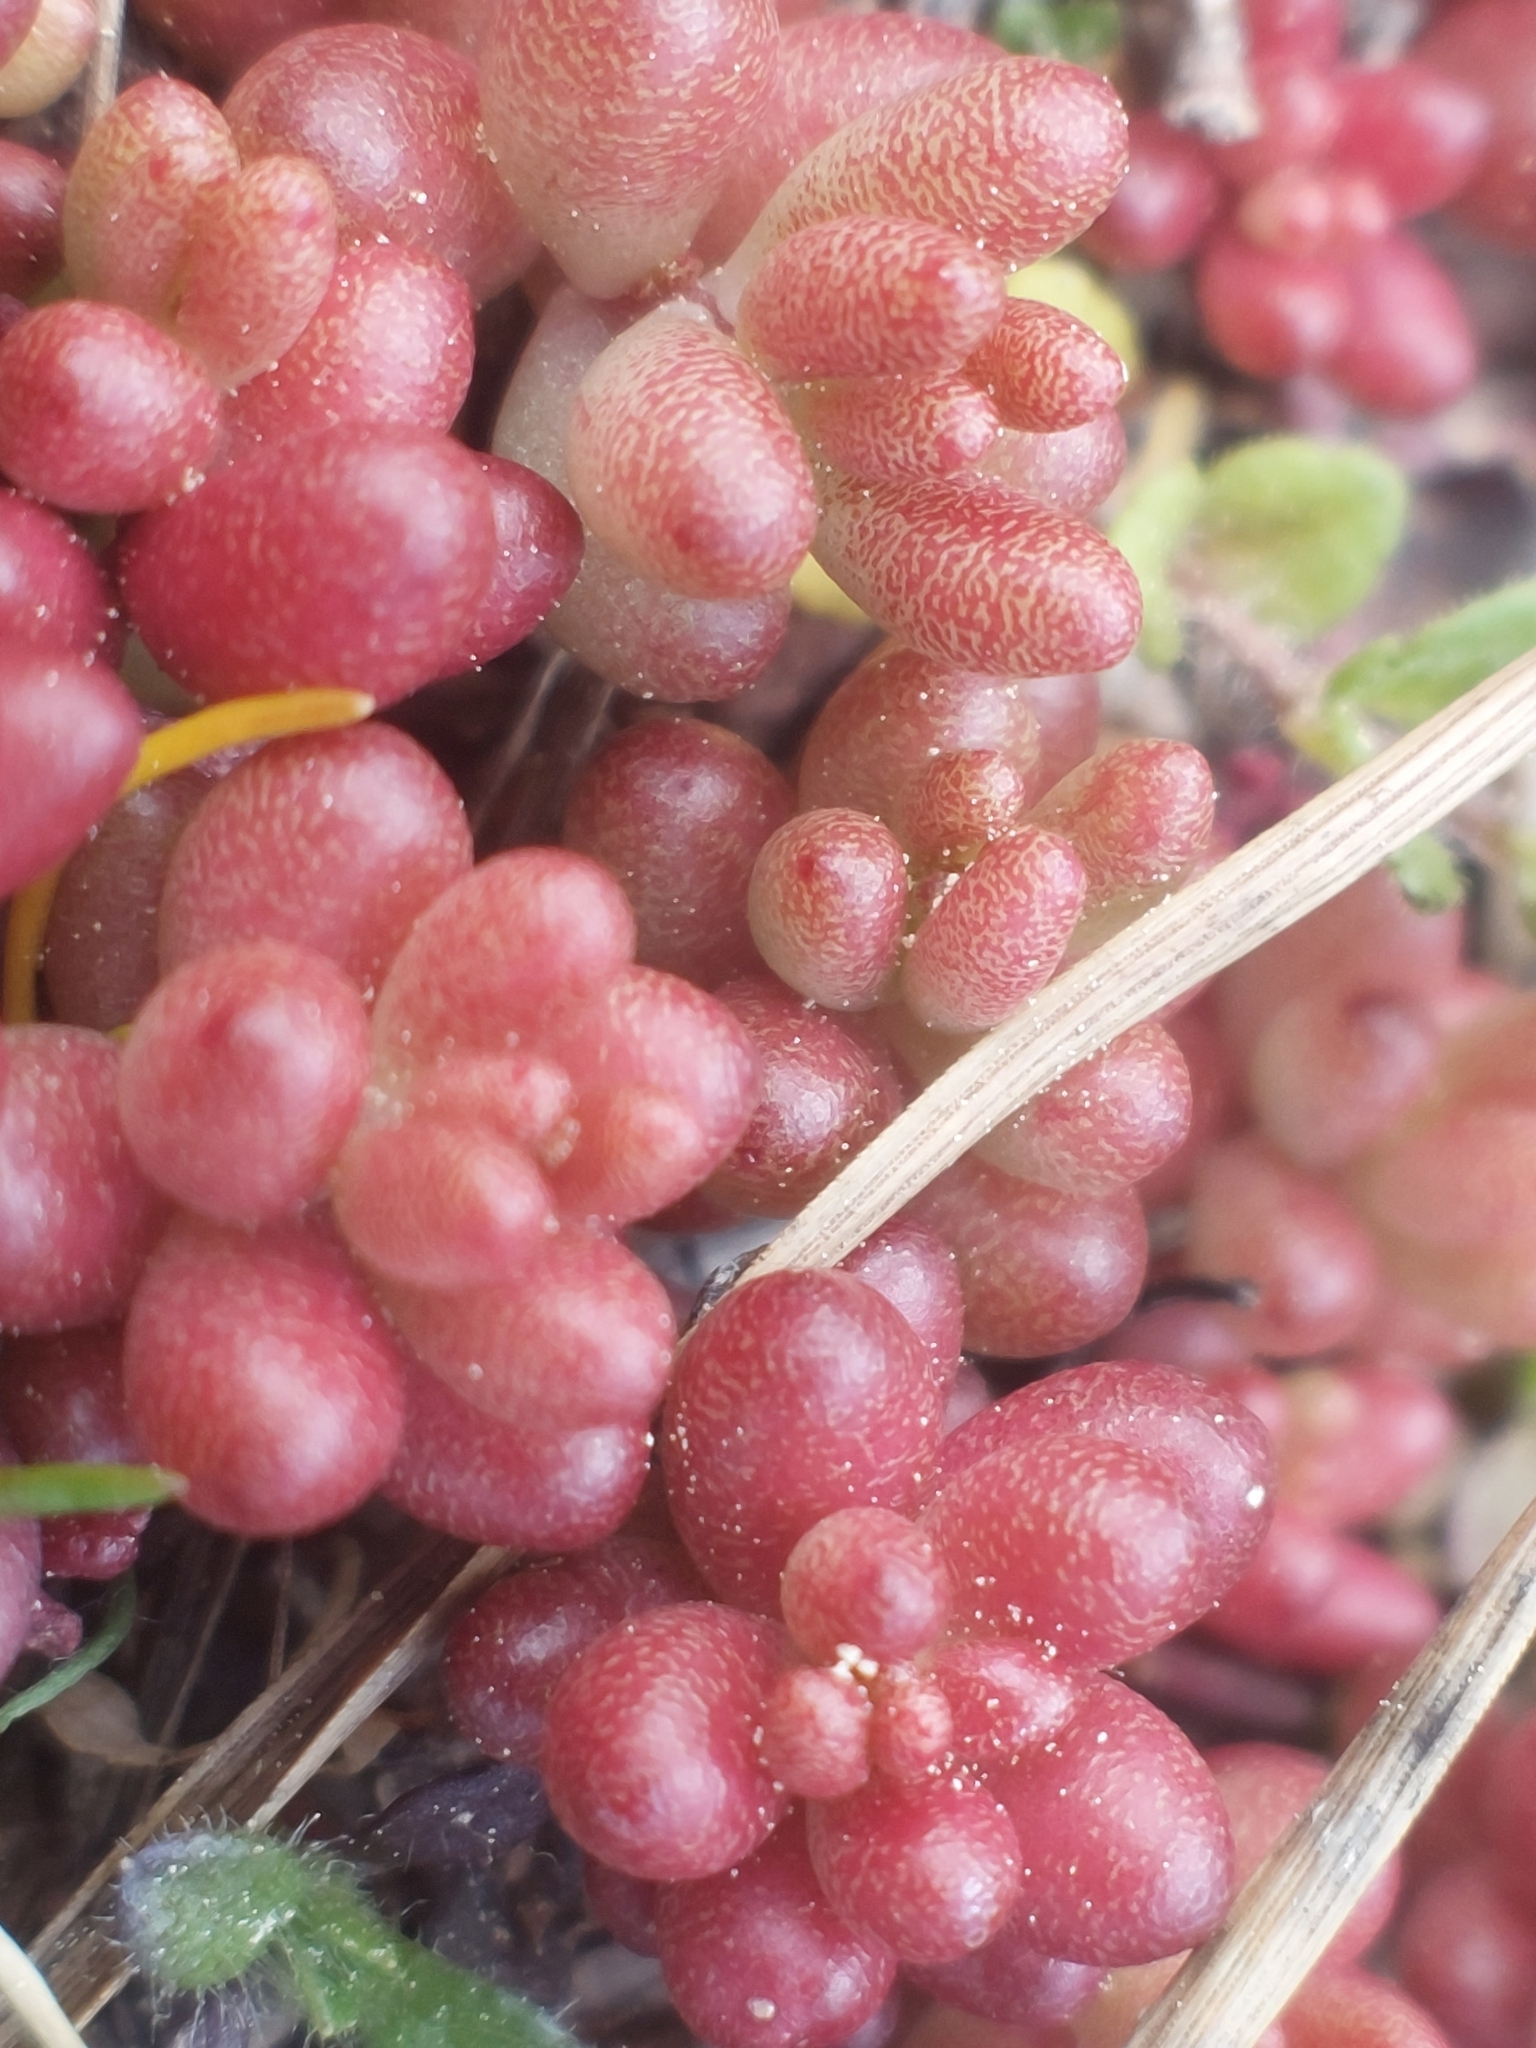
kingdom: Plantae
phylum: Tracheophyta
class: Magnoliopsida
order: Saxifragales
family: Crassulaceae
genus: Sedum
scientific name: Sedum album
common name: White stonecrop
